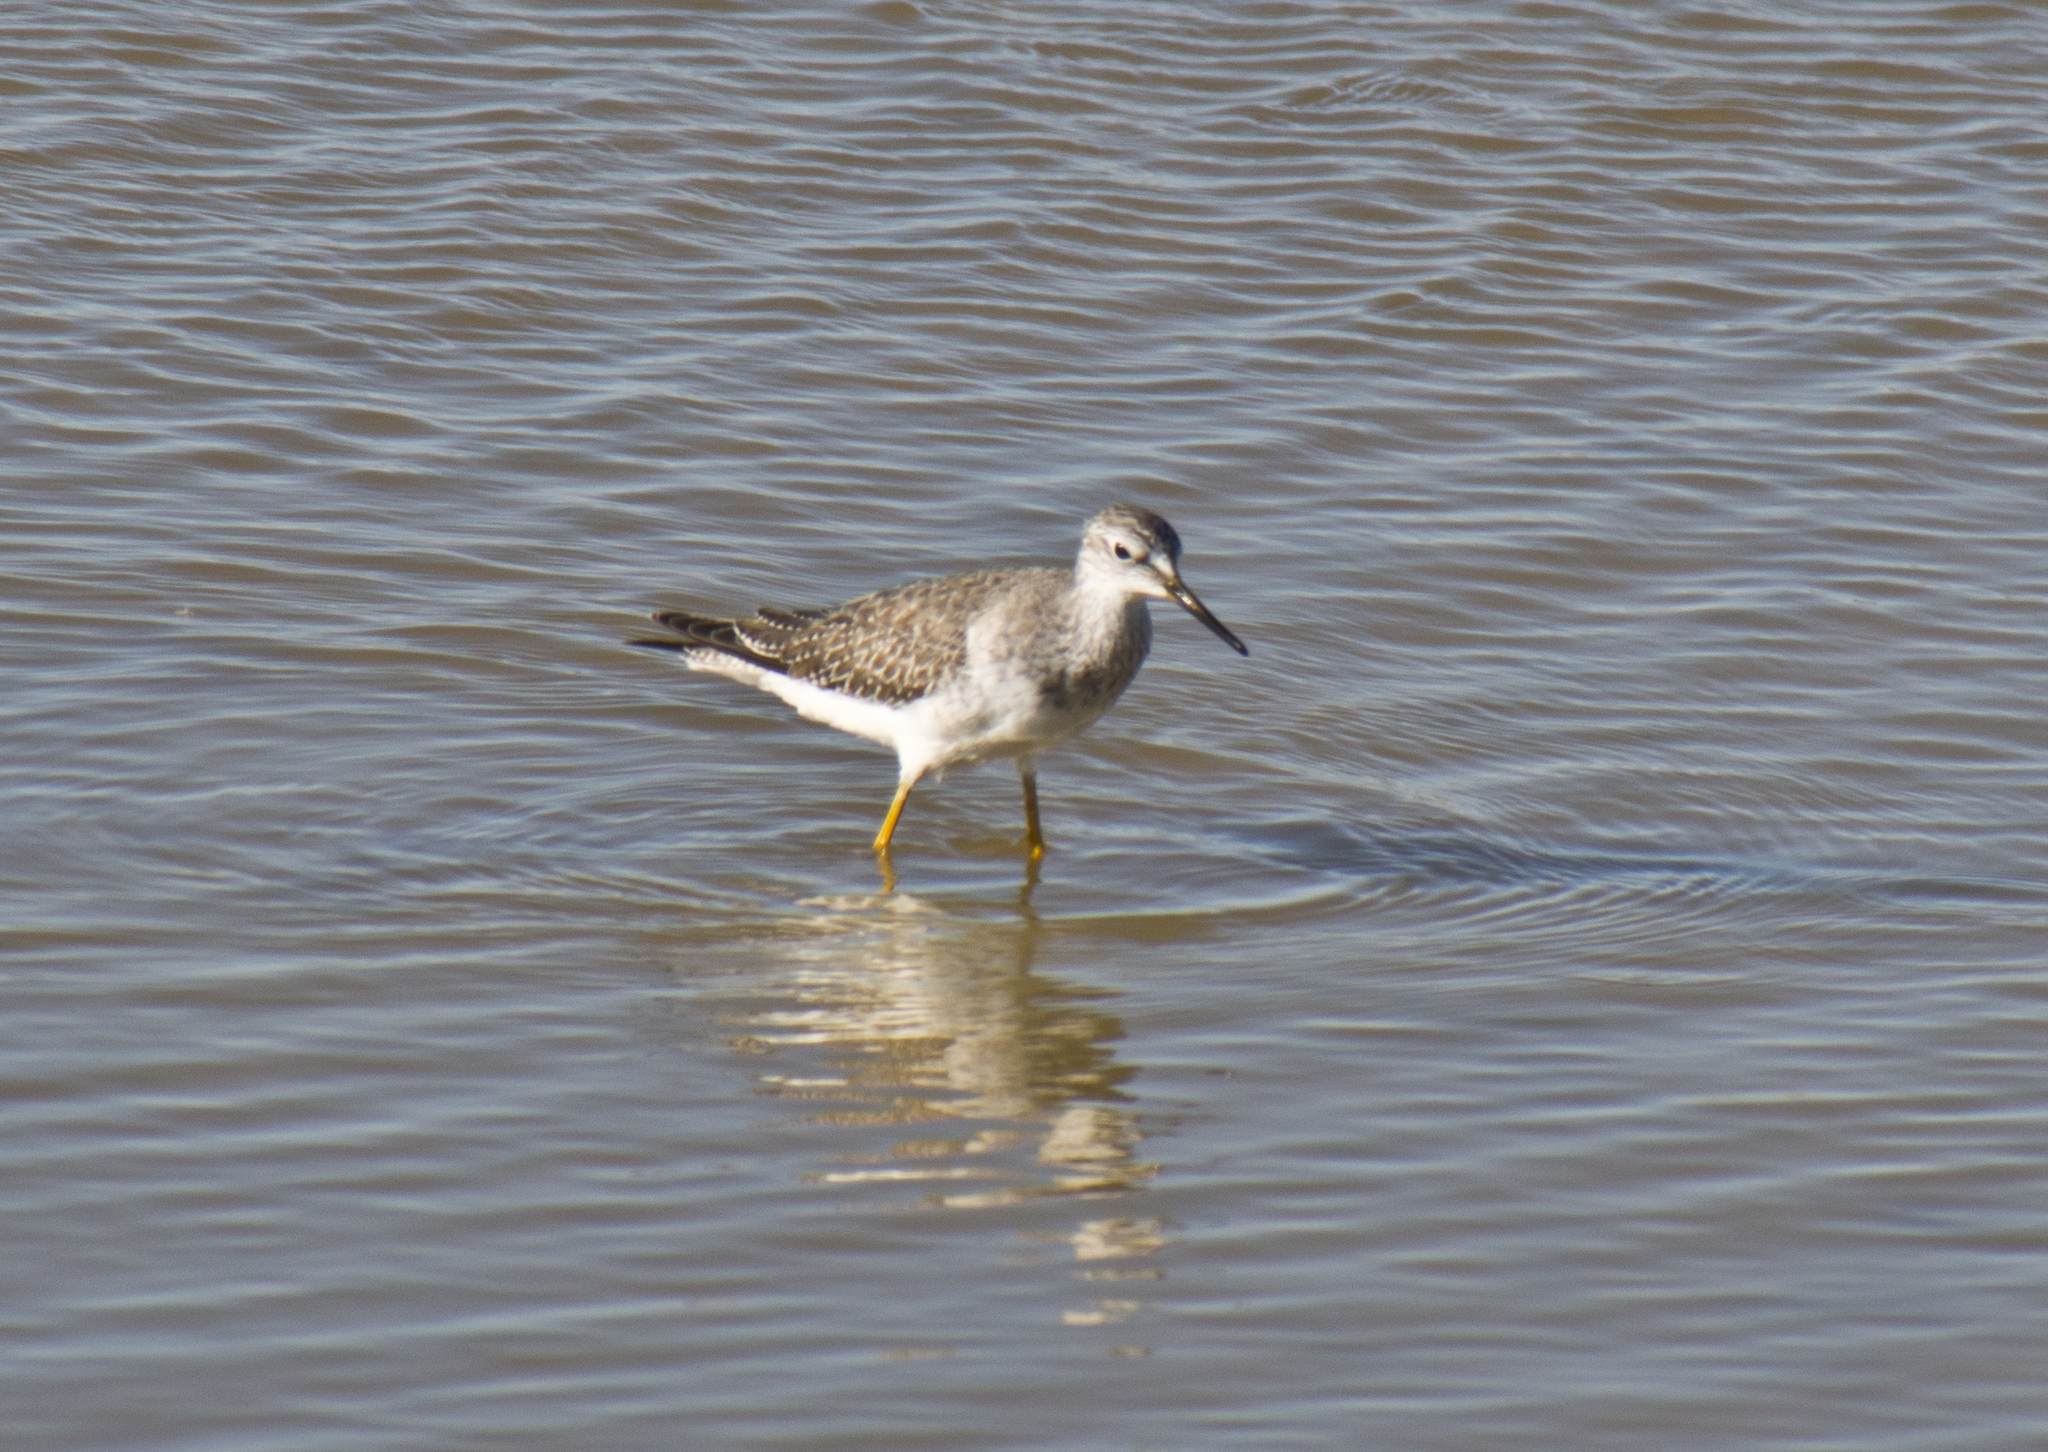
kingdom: Animalia
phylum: Chordata
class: Aves
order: Charadriiformes
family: Scolopacidae
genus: Tringa
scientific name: Tringa flavipes
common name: Lesser yellowlegs
